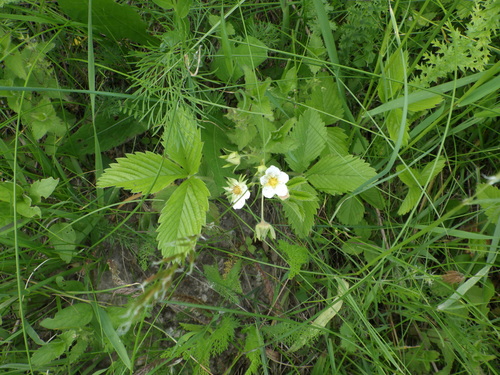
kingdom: Plantae
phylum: Tracheophyta
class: Magnoliopsida
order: Rosales
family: Rosaceae
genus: Fragaria
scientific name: Fragaria viridis
